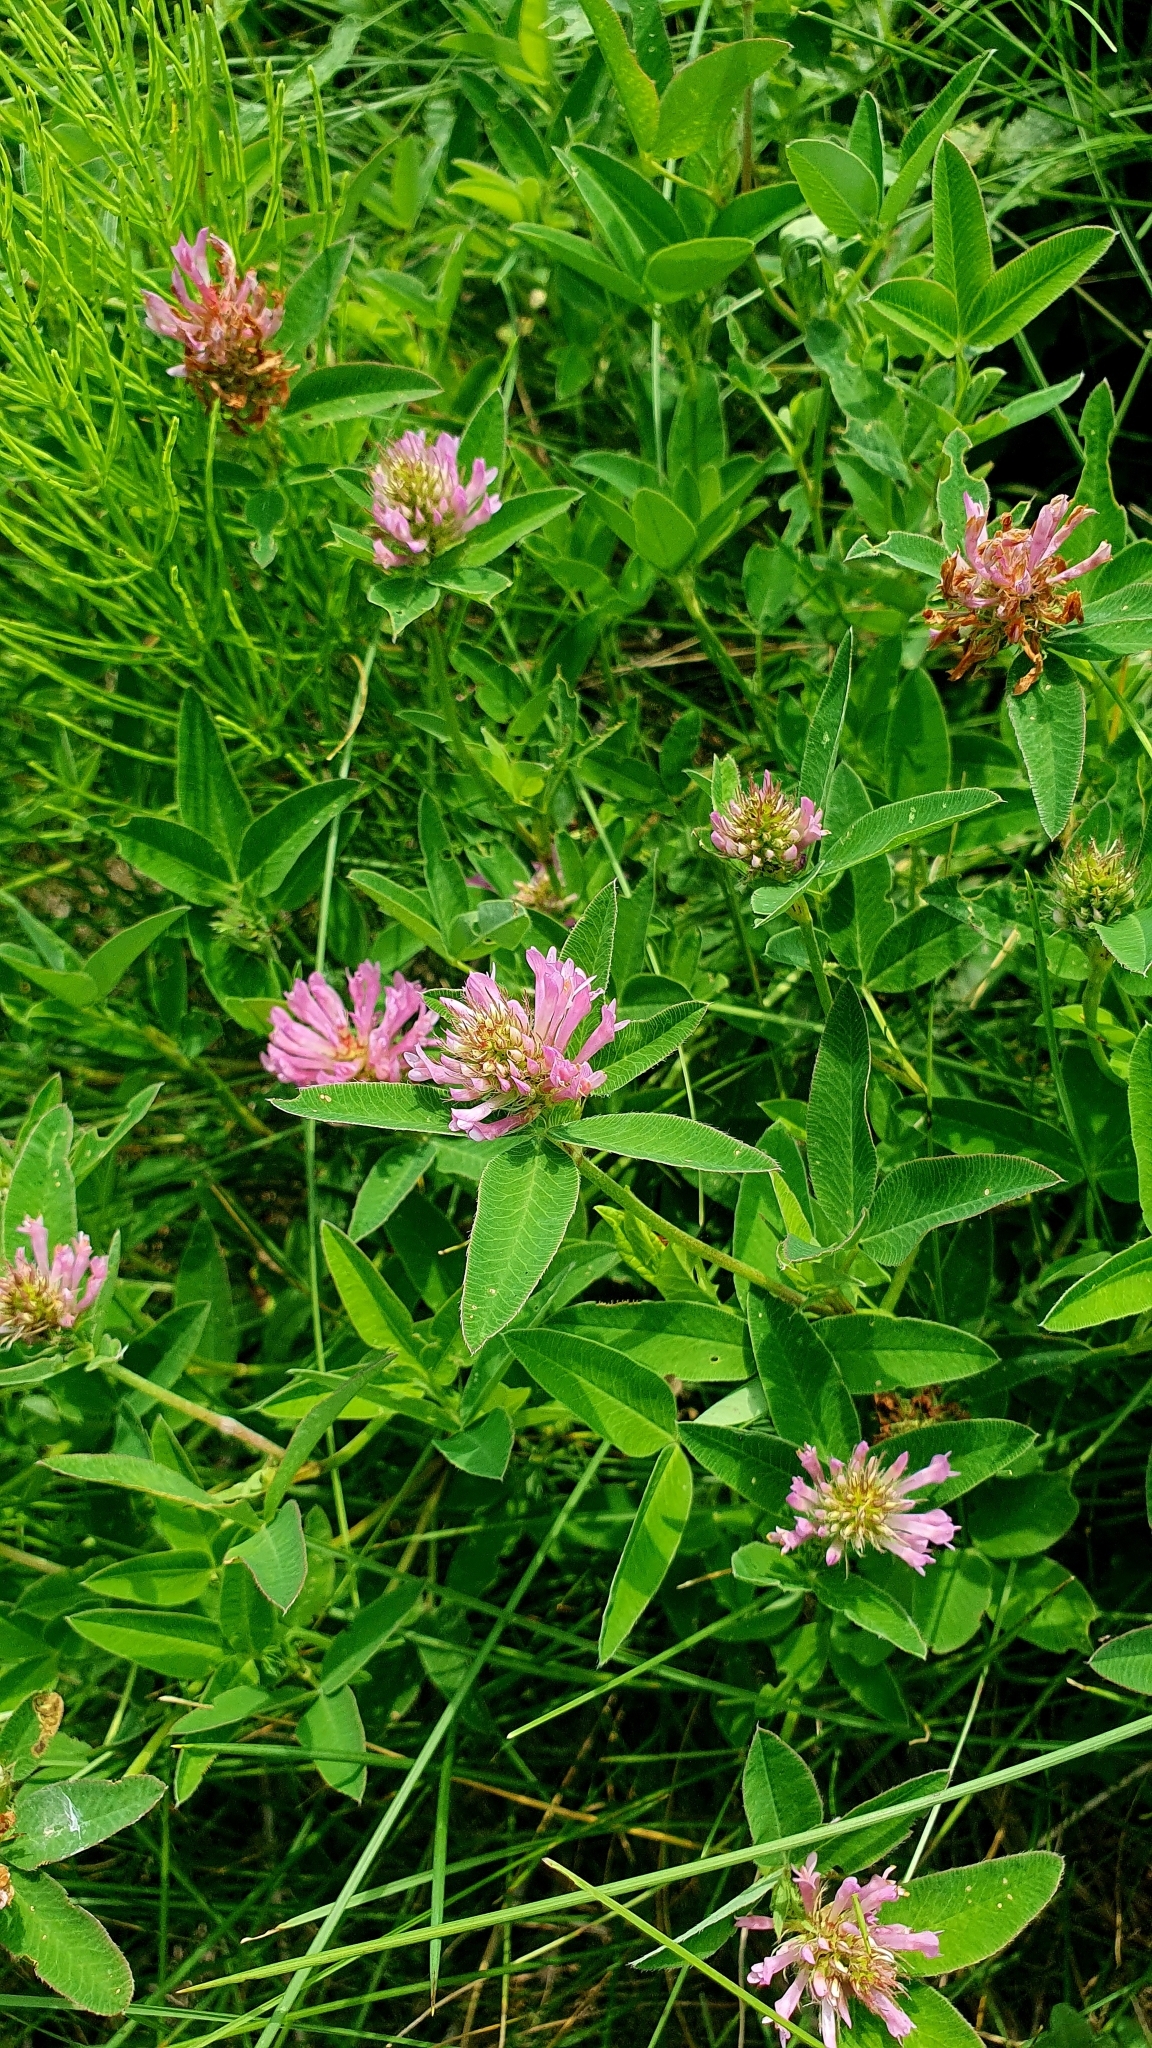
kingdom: Plantae
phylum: Tracheophyta
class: Magnoliopsida
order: Fabales
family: Fabaceae
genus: Trifolium
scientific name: Trifolium medium
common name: Zigzag clover
